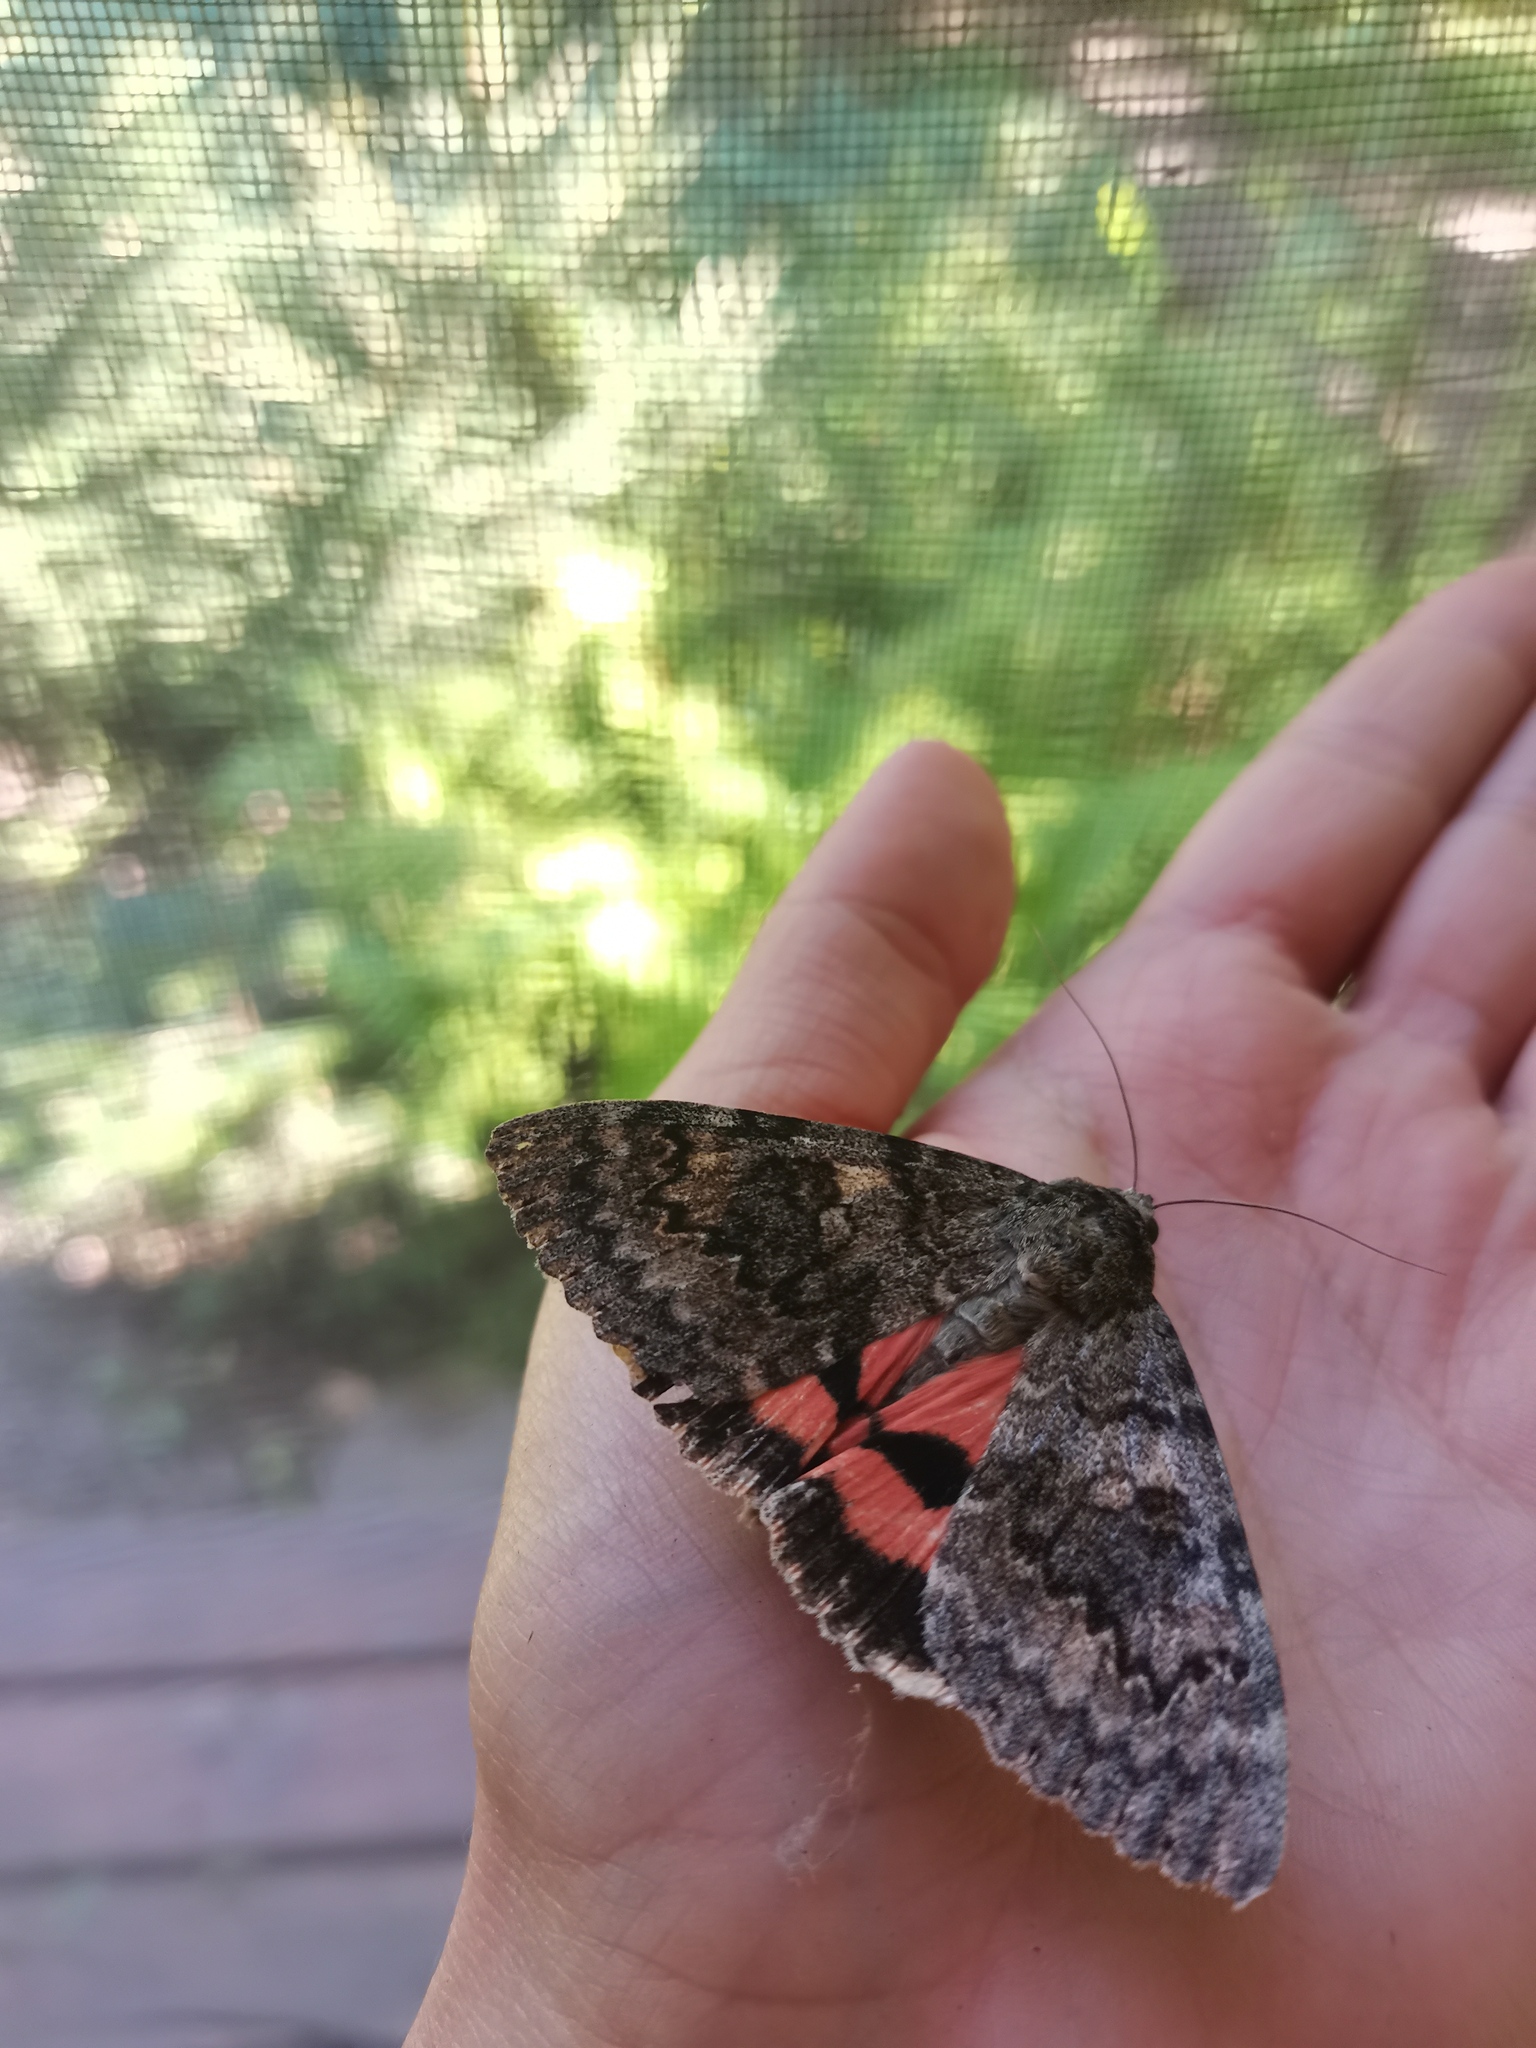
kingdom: Animalia
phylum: Arthropoda
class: Insecta
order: Lepidoptera
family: Erebidae
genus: Catocala
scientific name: Catocala elocata
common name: French red underwing
